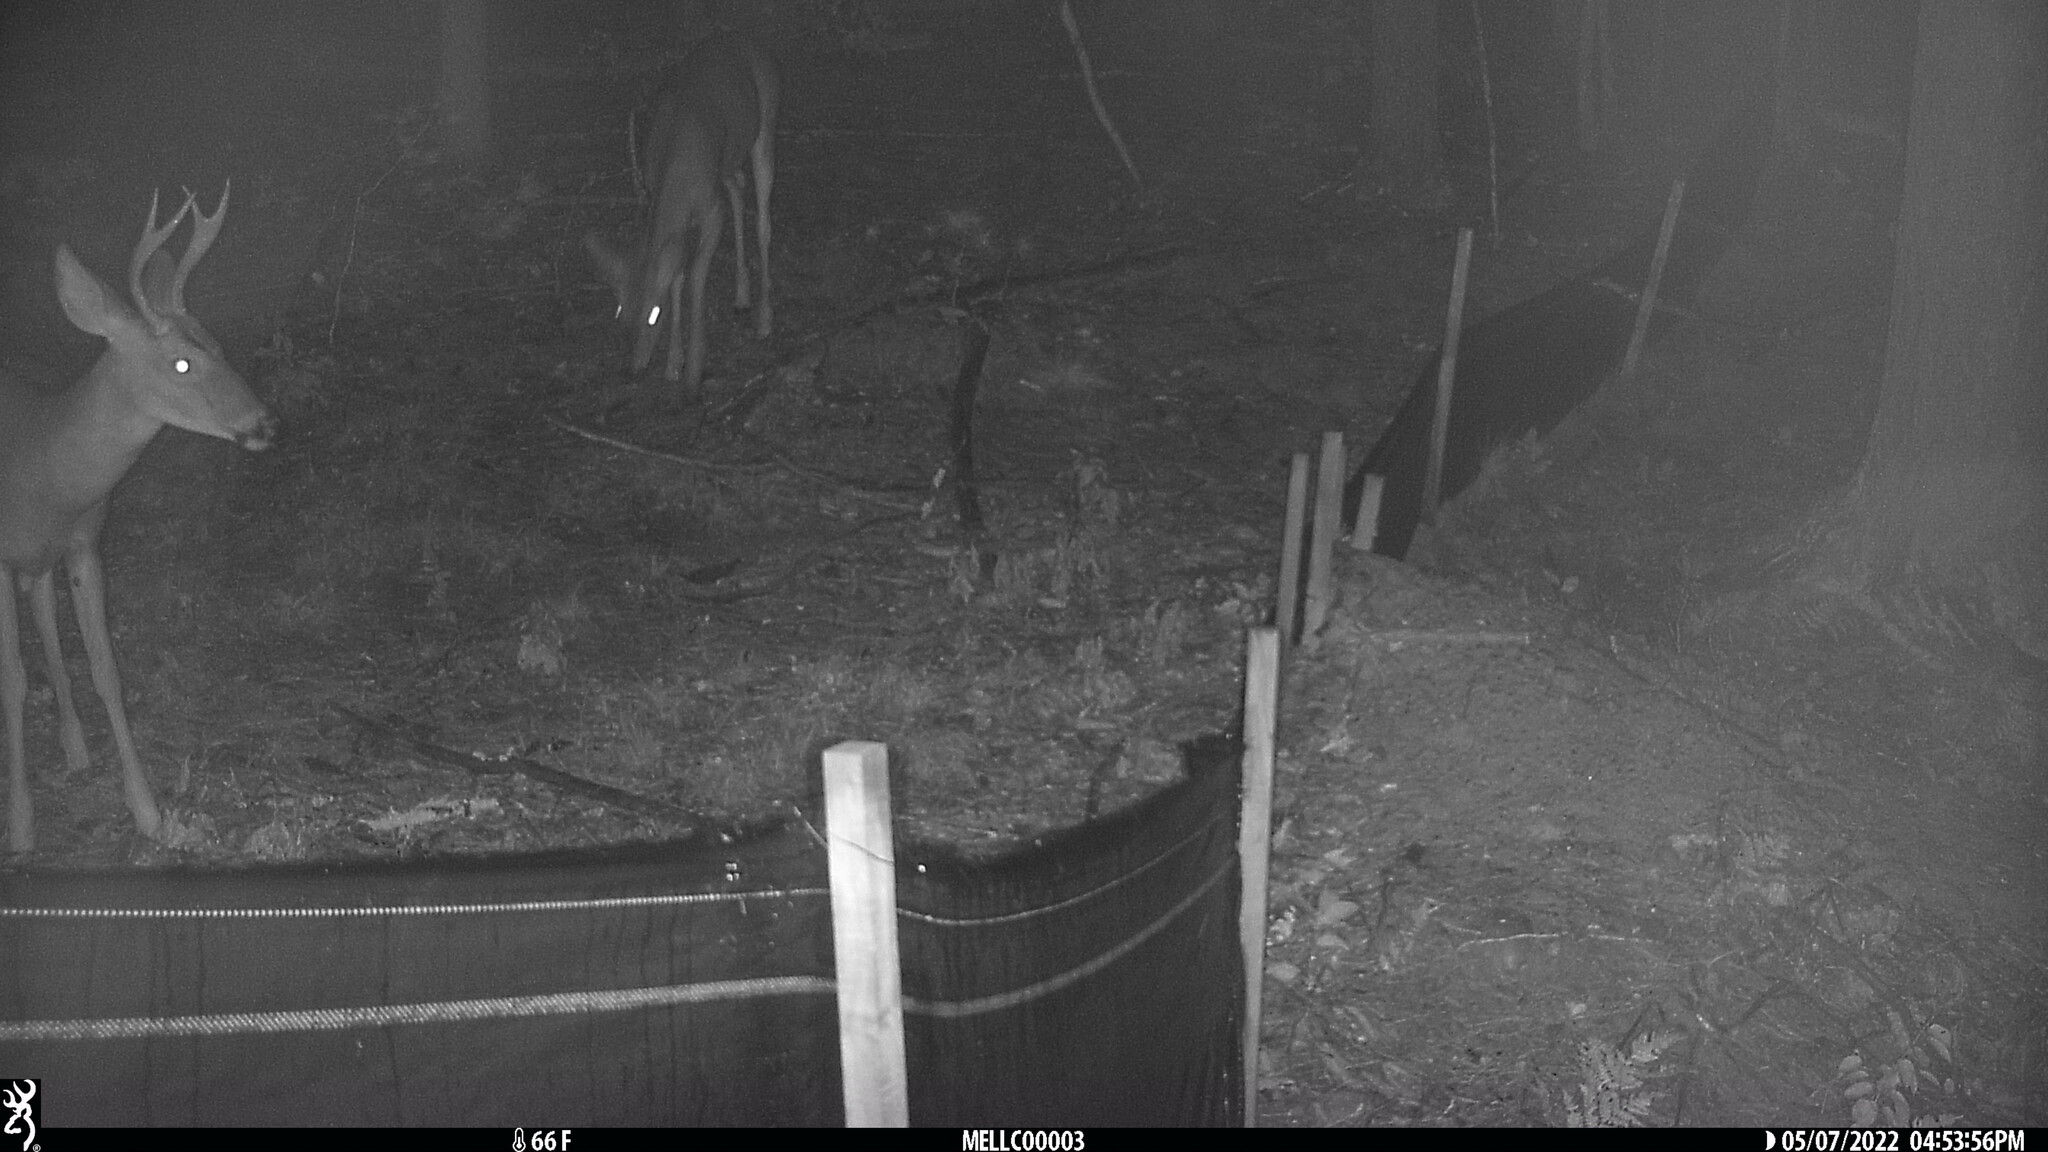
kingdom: Animalia
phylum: Chordata
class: Mammalia
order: Artiodactyla
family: Cervidae
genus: Odocoileus
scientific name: Odocoileus virginianus
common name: White-tailed deer
